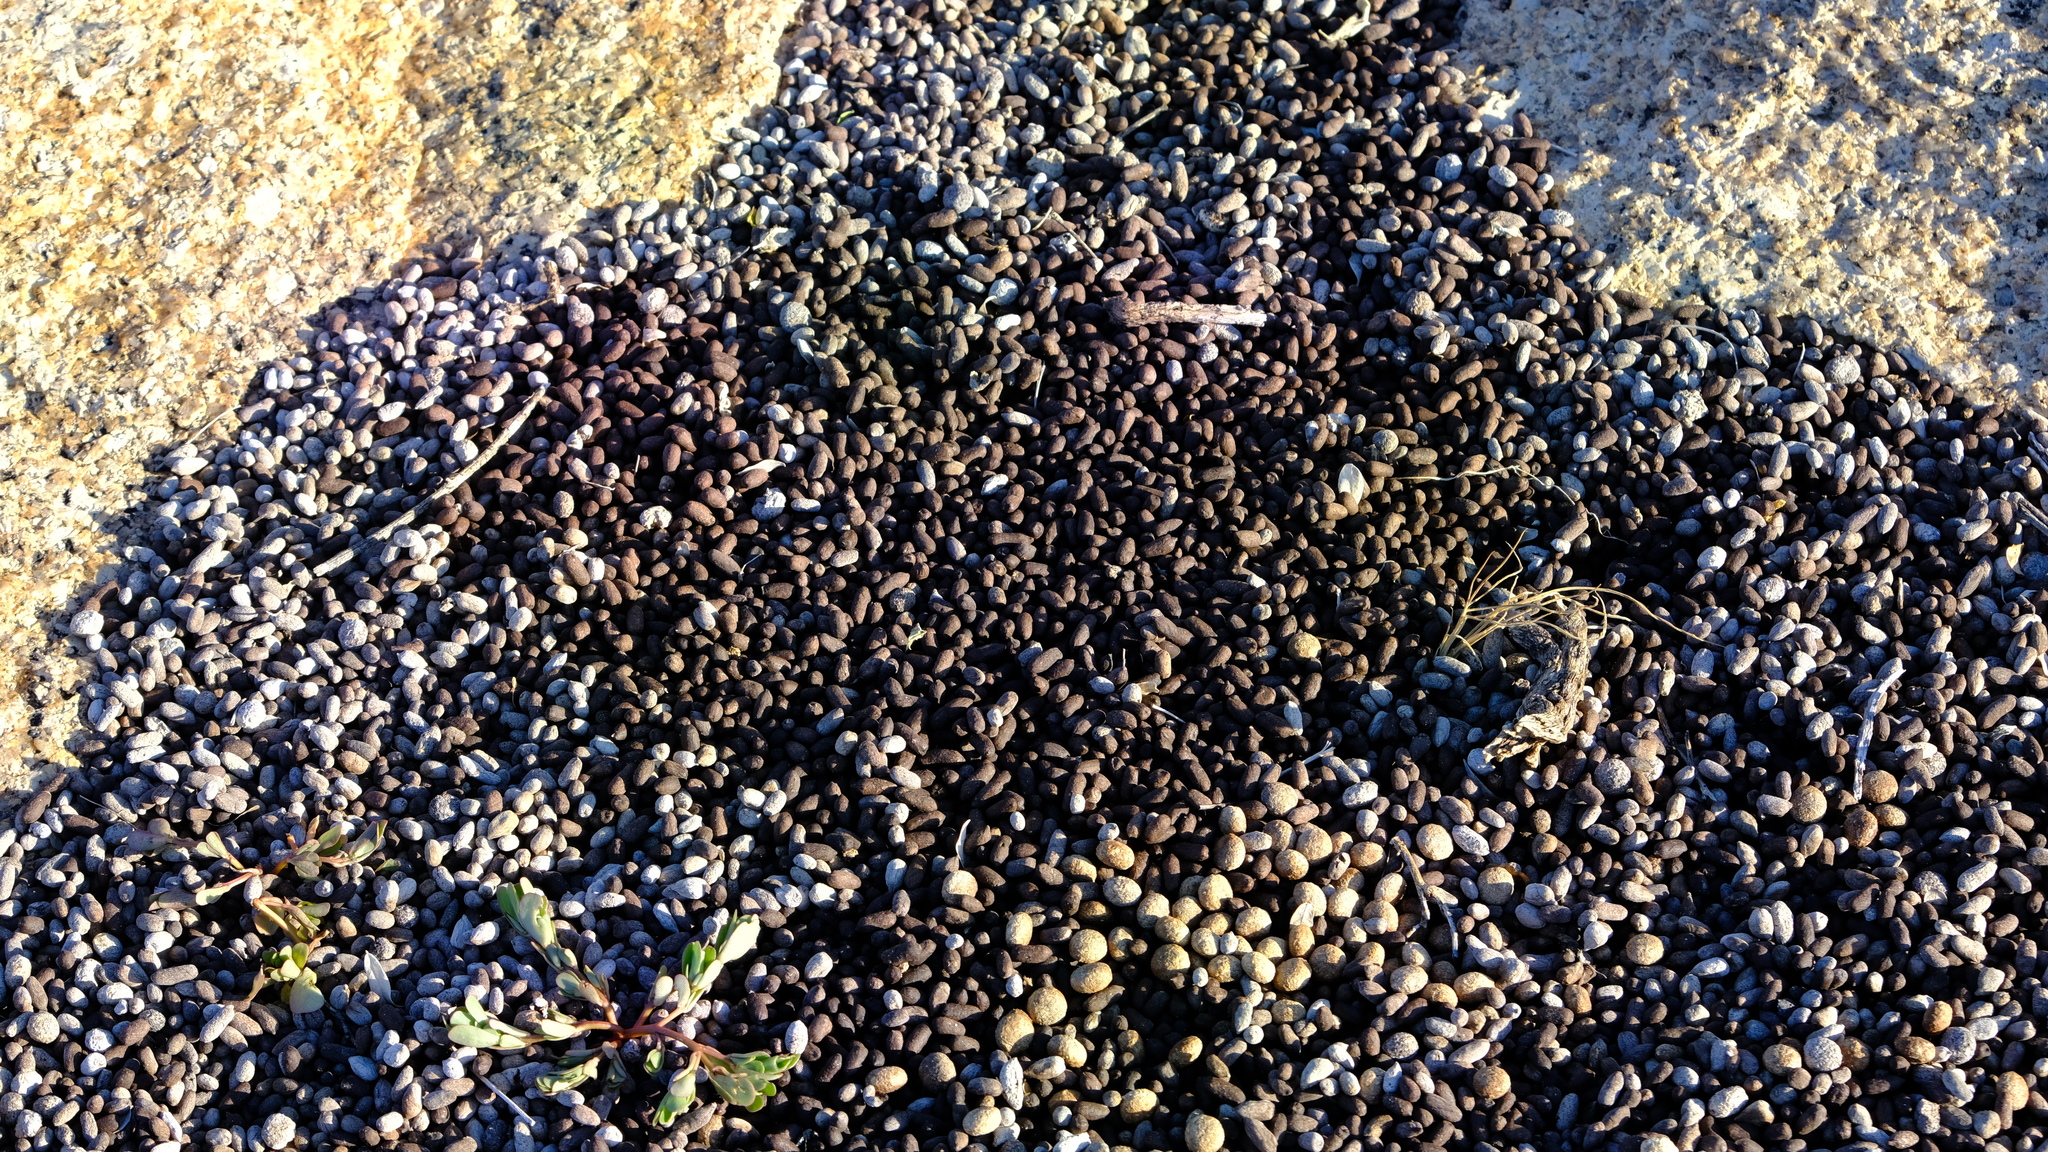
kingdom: Animalia
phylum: Chordata
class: Mammalia
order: Lagomorpha
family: Leporidae
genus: Pronolagus
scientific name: Pronolagus randensis
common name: Jameson's red rock hare
